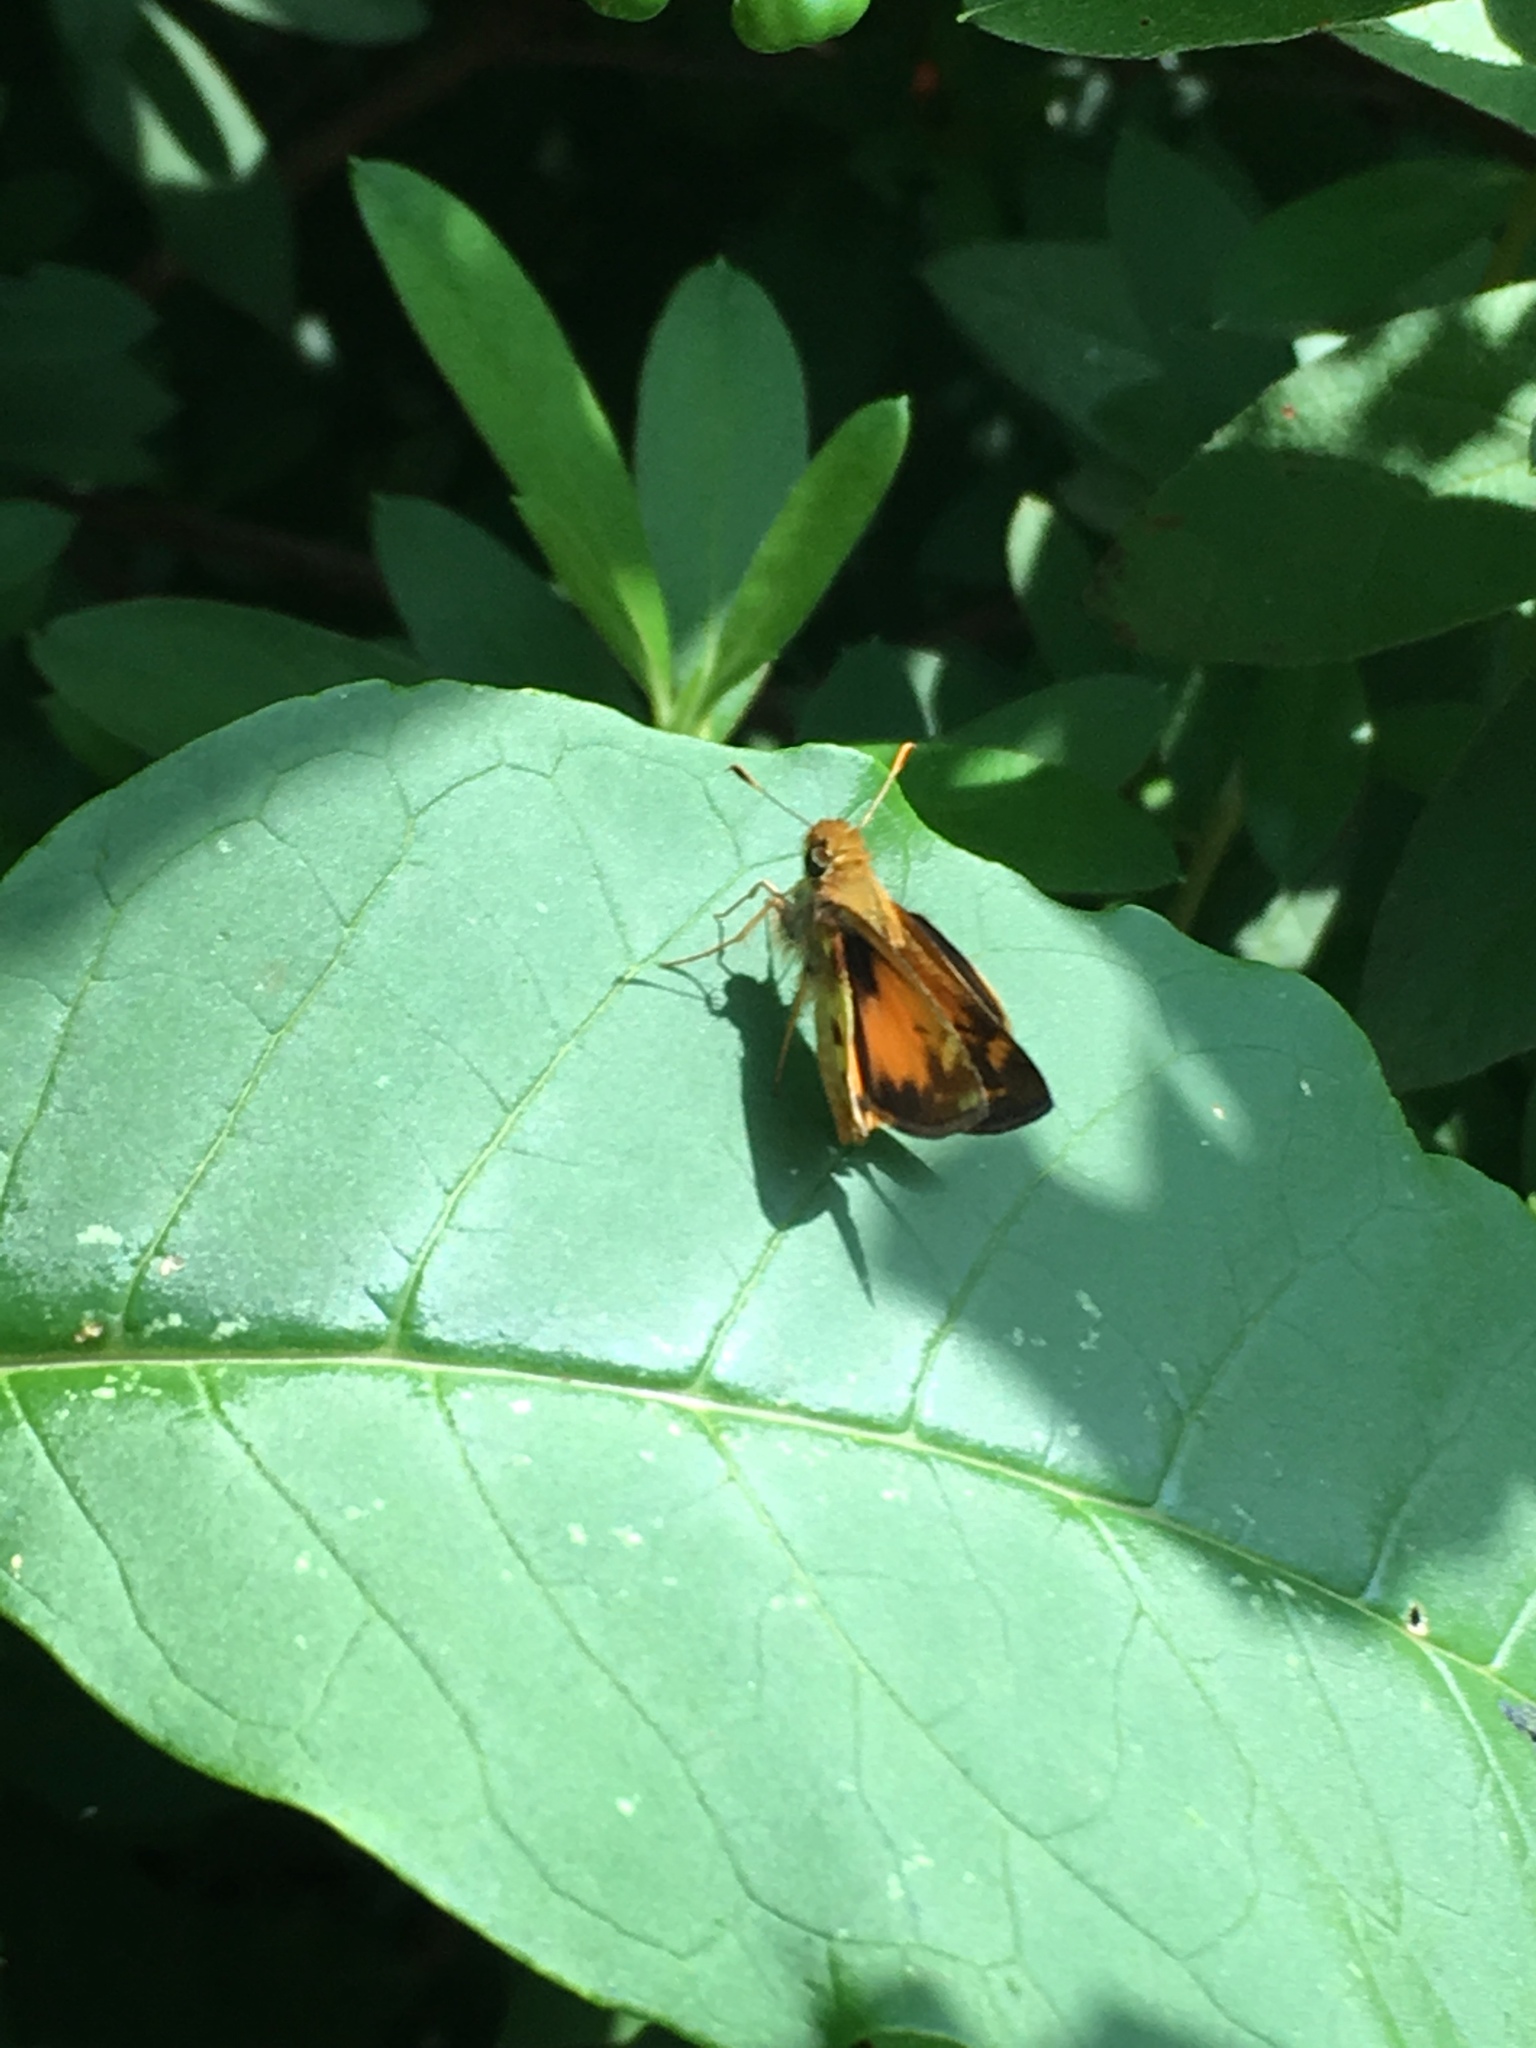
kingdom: Animalia
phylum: Arthropoda
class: Insecta
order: Lepidoptera
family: Hesperiidae
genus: Lon
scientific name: Lon zabulon
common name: Zabulon skipper
